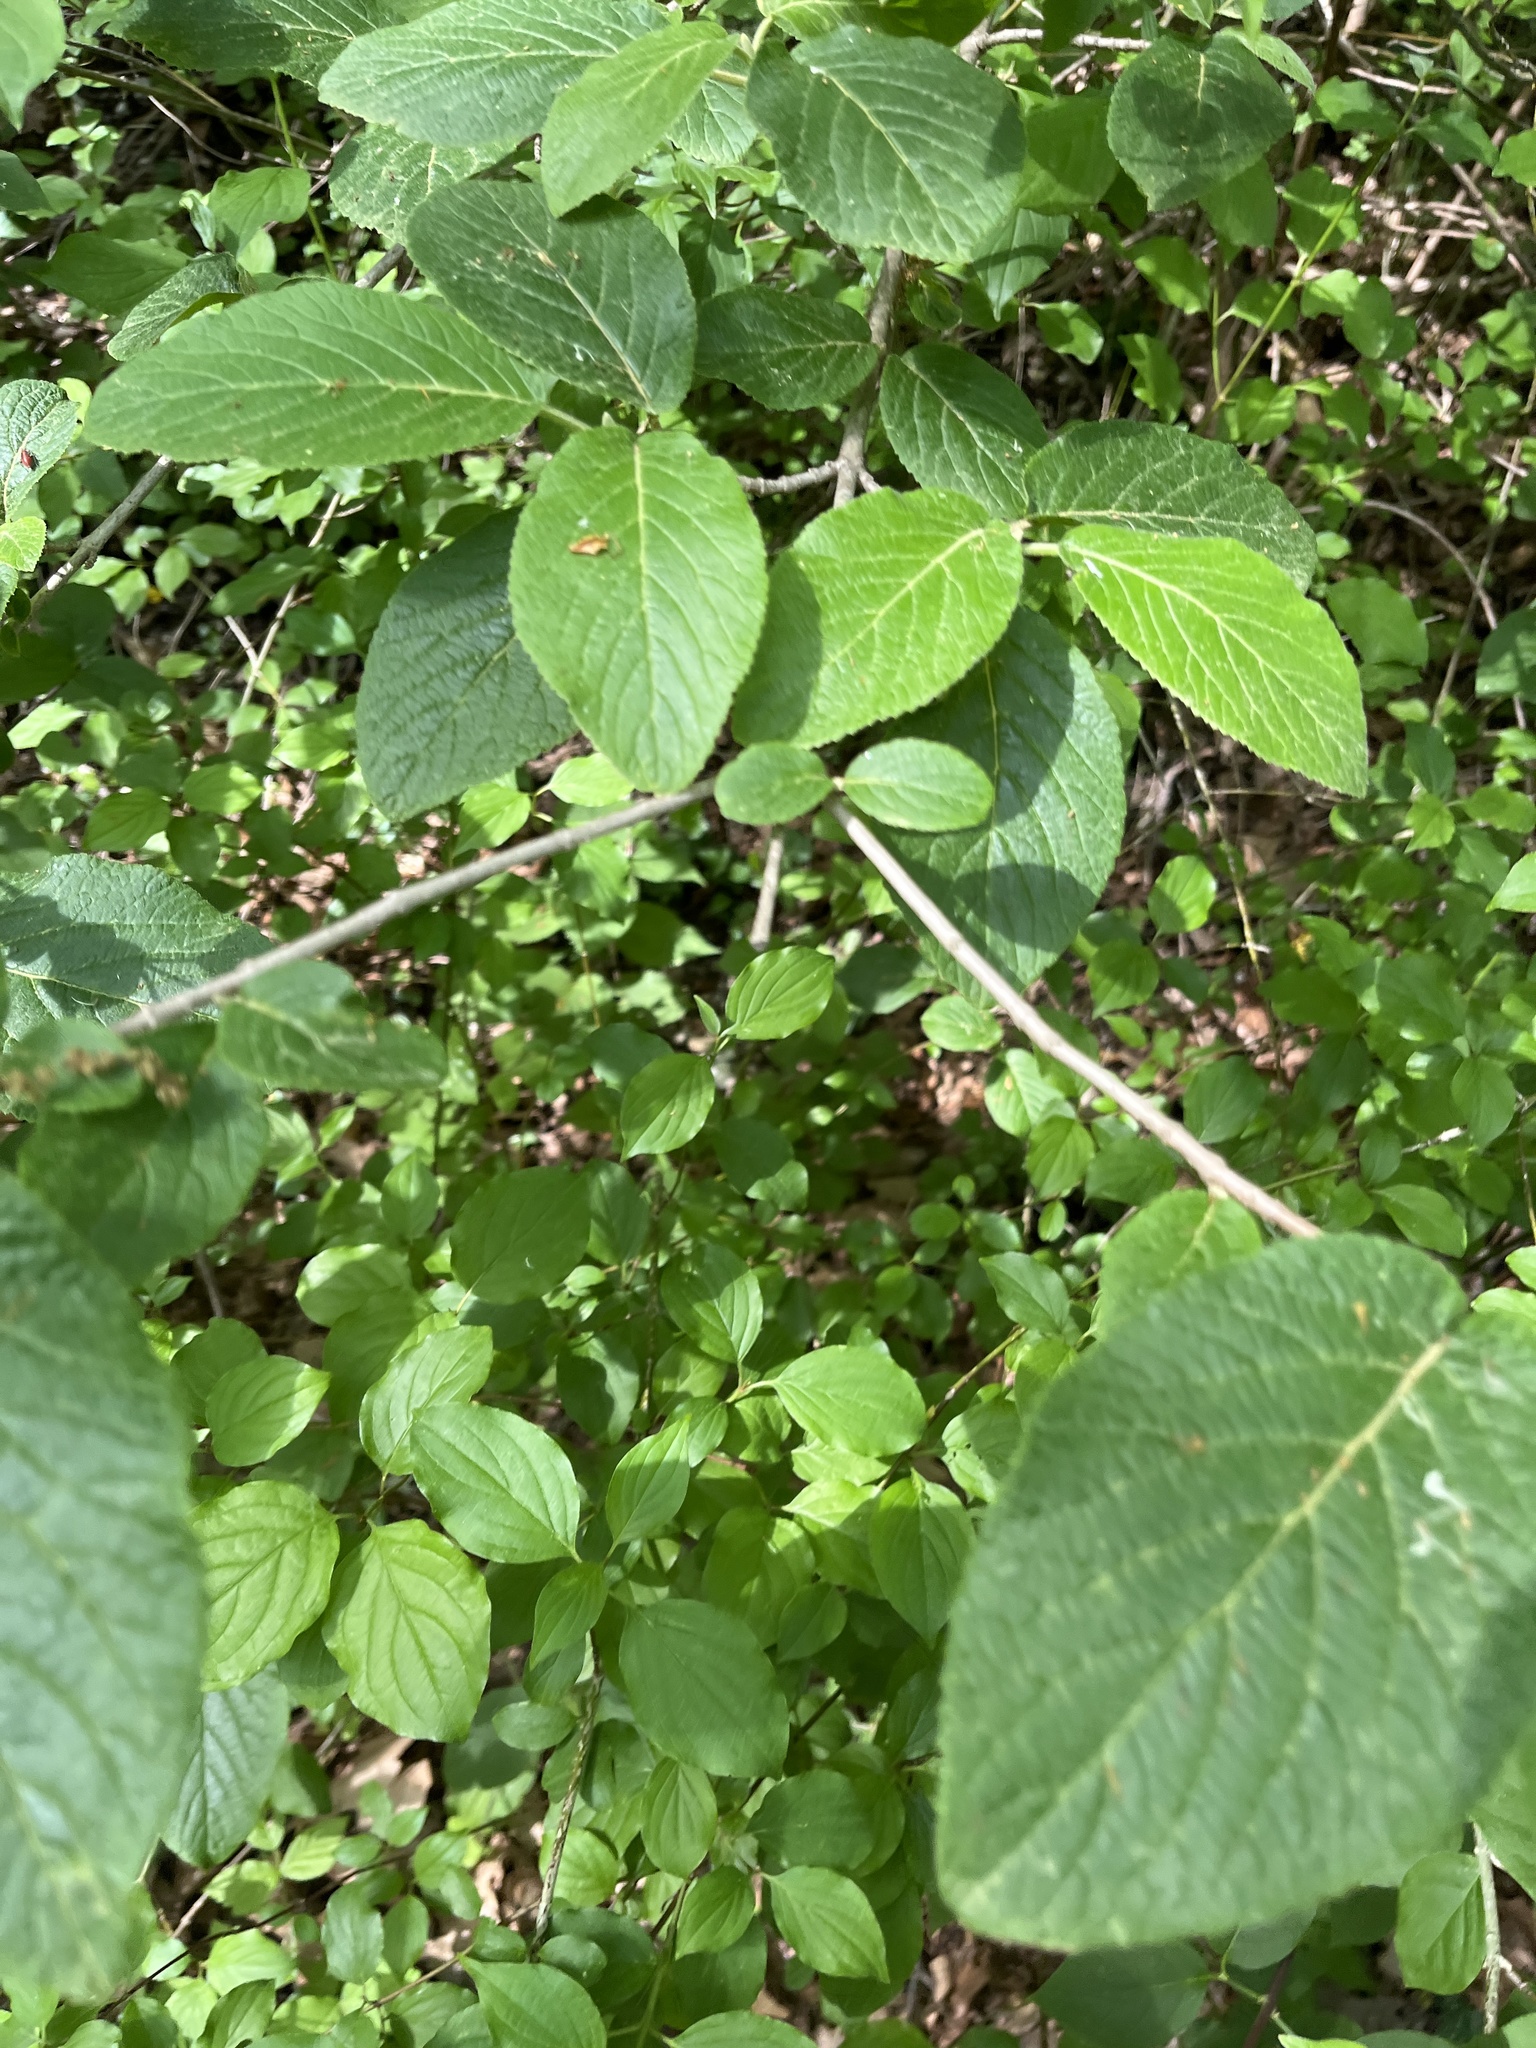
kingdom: Plantae
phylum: Tracheophyta
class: Magnoliopsida
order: Dipsacales
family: Viburnaceae
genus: Viburnum
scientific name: Viburnum lantana
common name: Wayfaring tree
